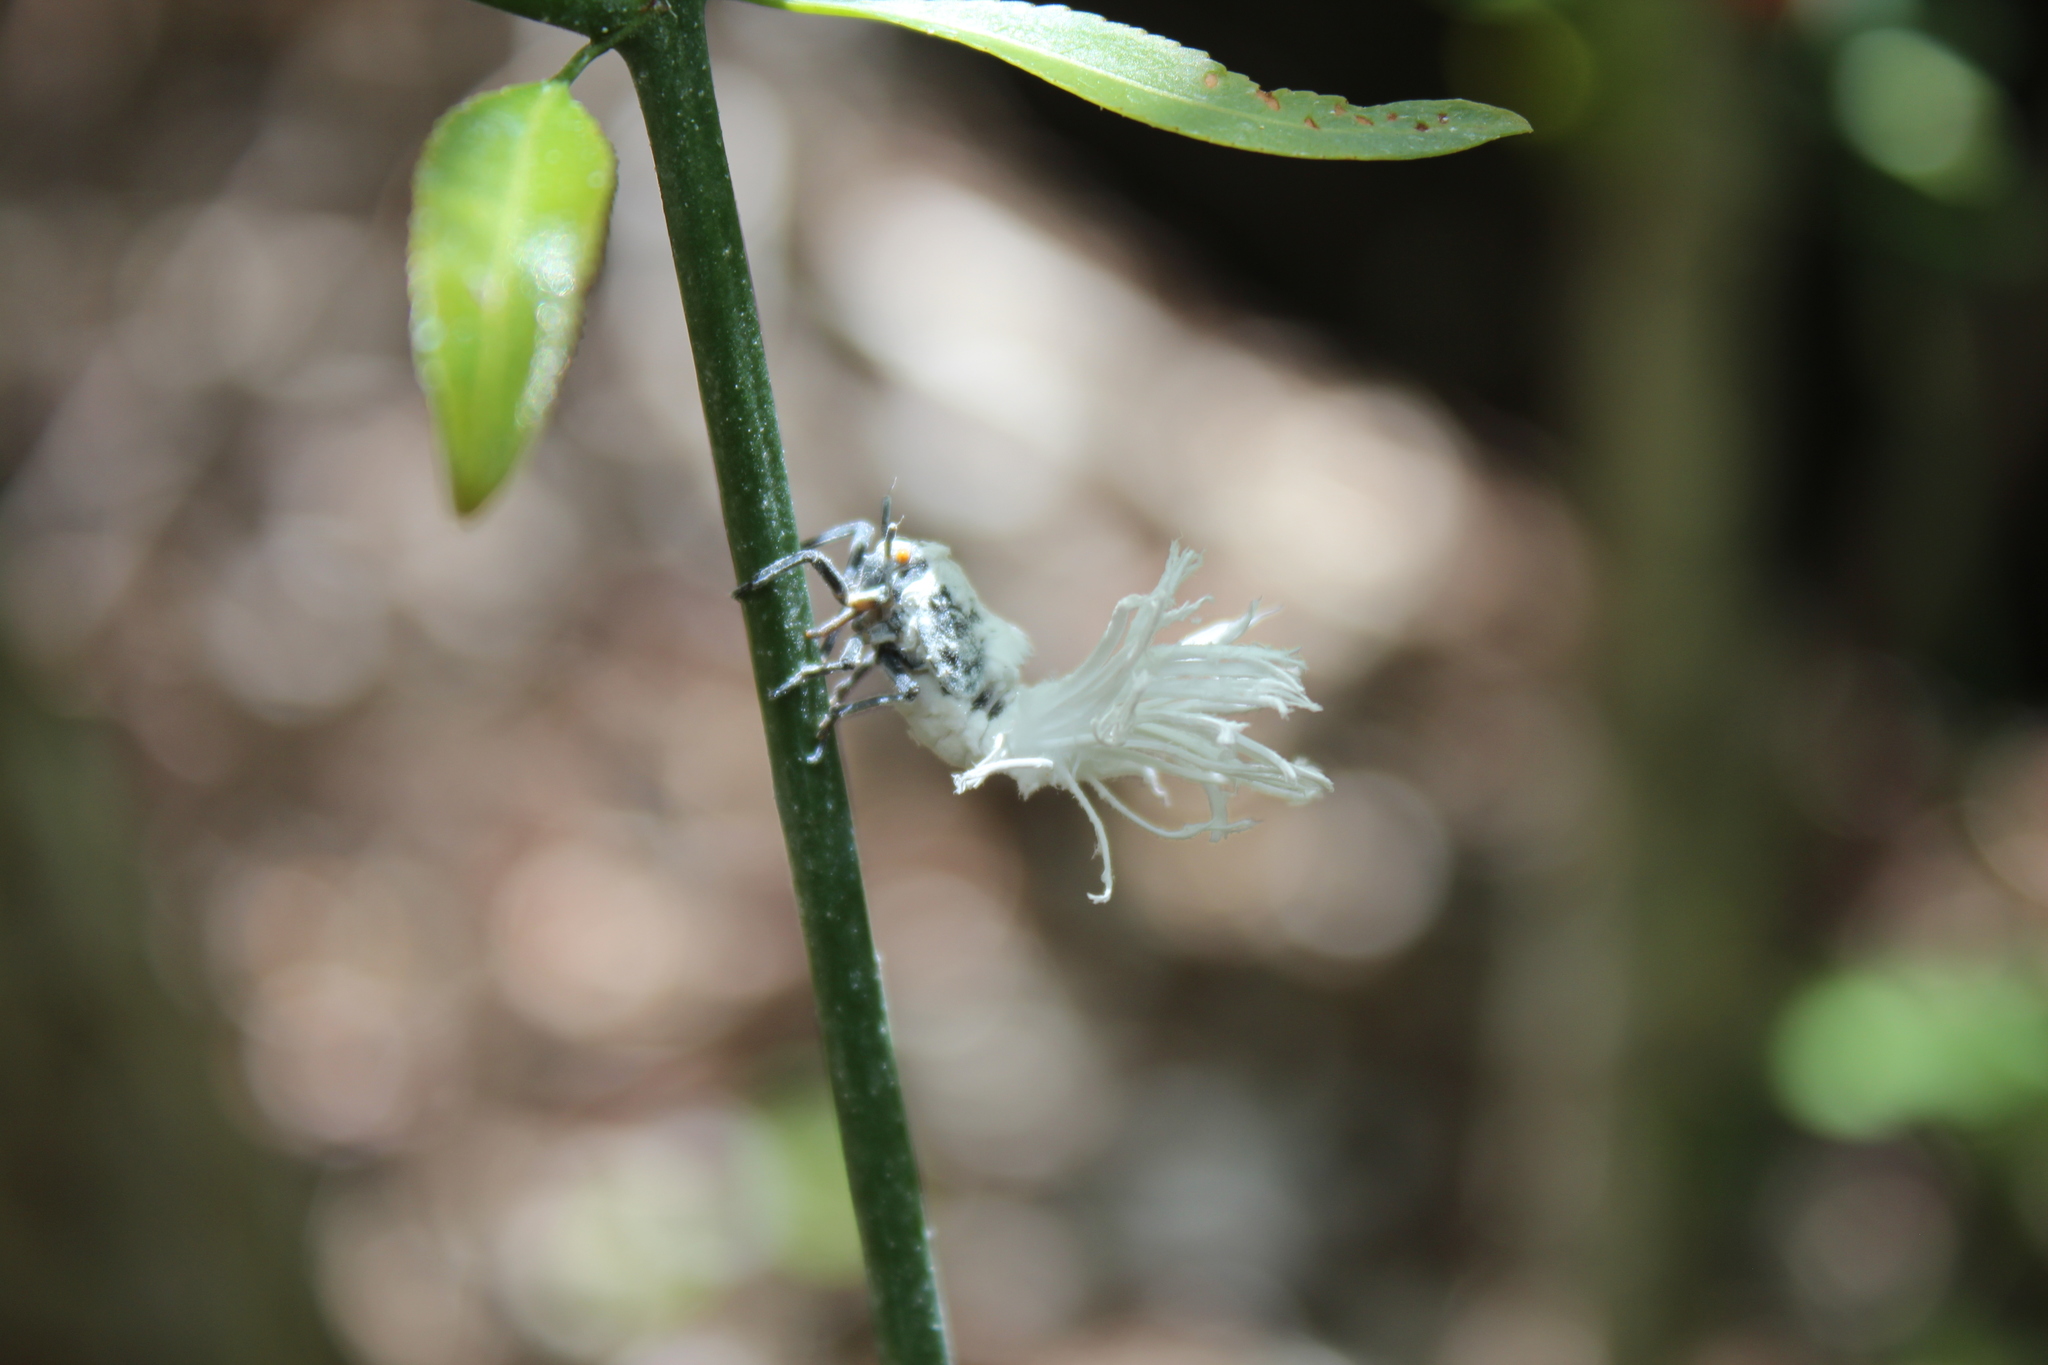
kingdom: Animalia
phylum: Arthropoda
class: Insecta
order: Hemiptera
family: Flatidae
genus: Flatida
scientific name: Flatida rosea
